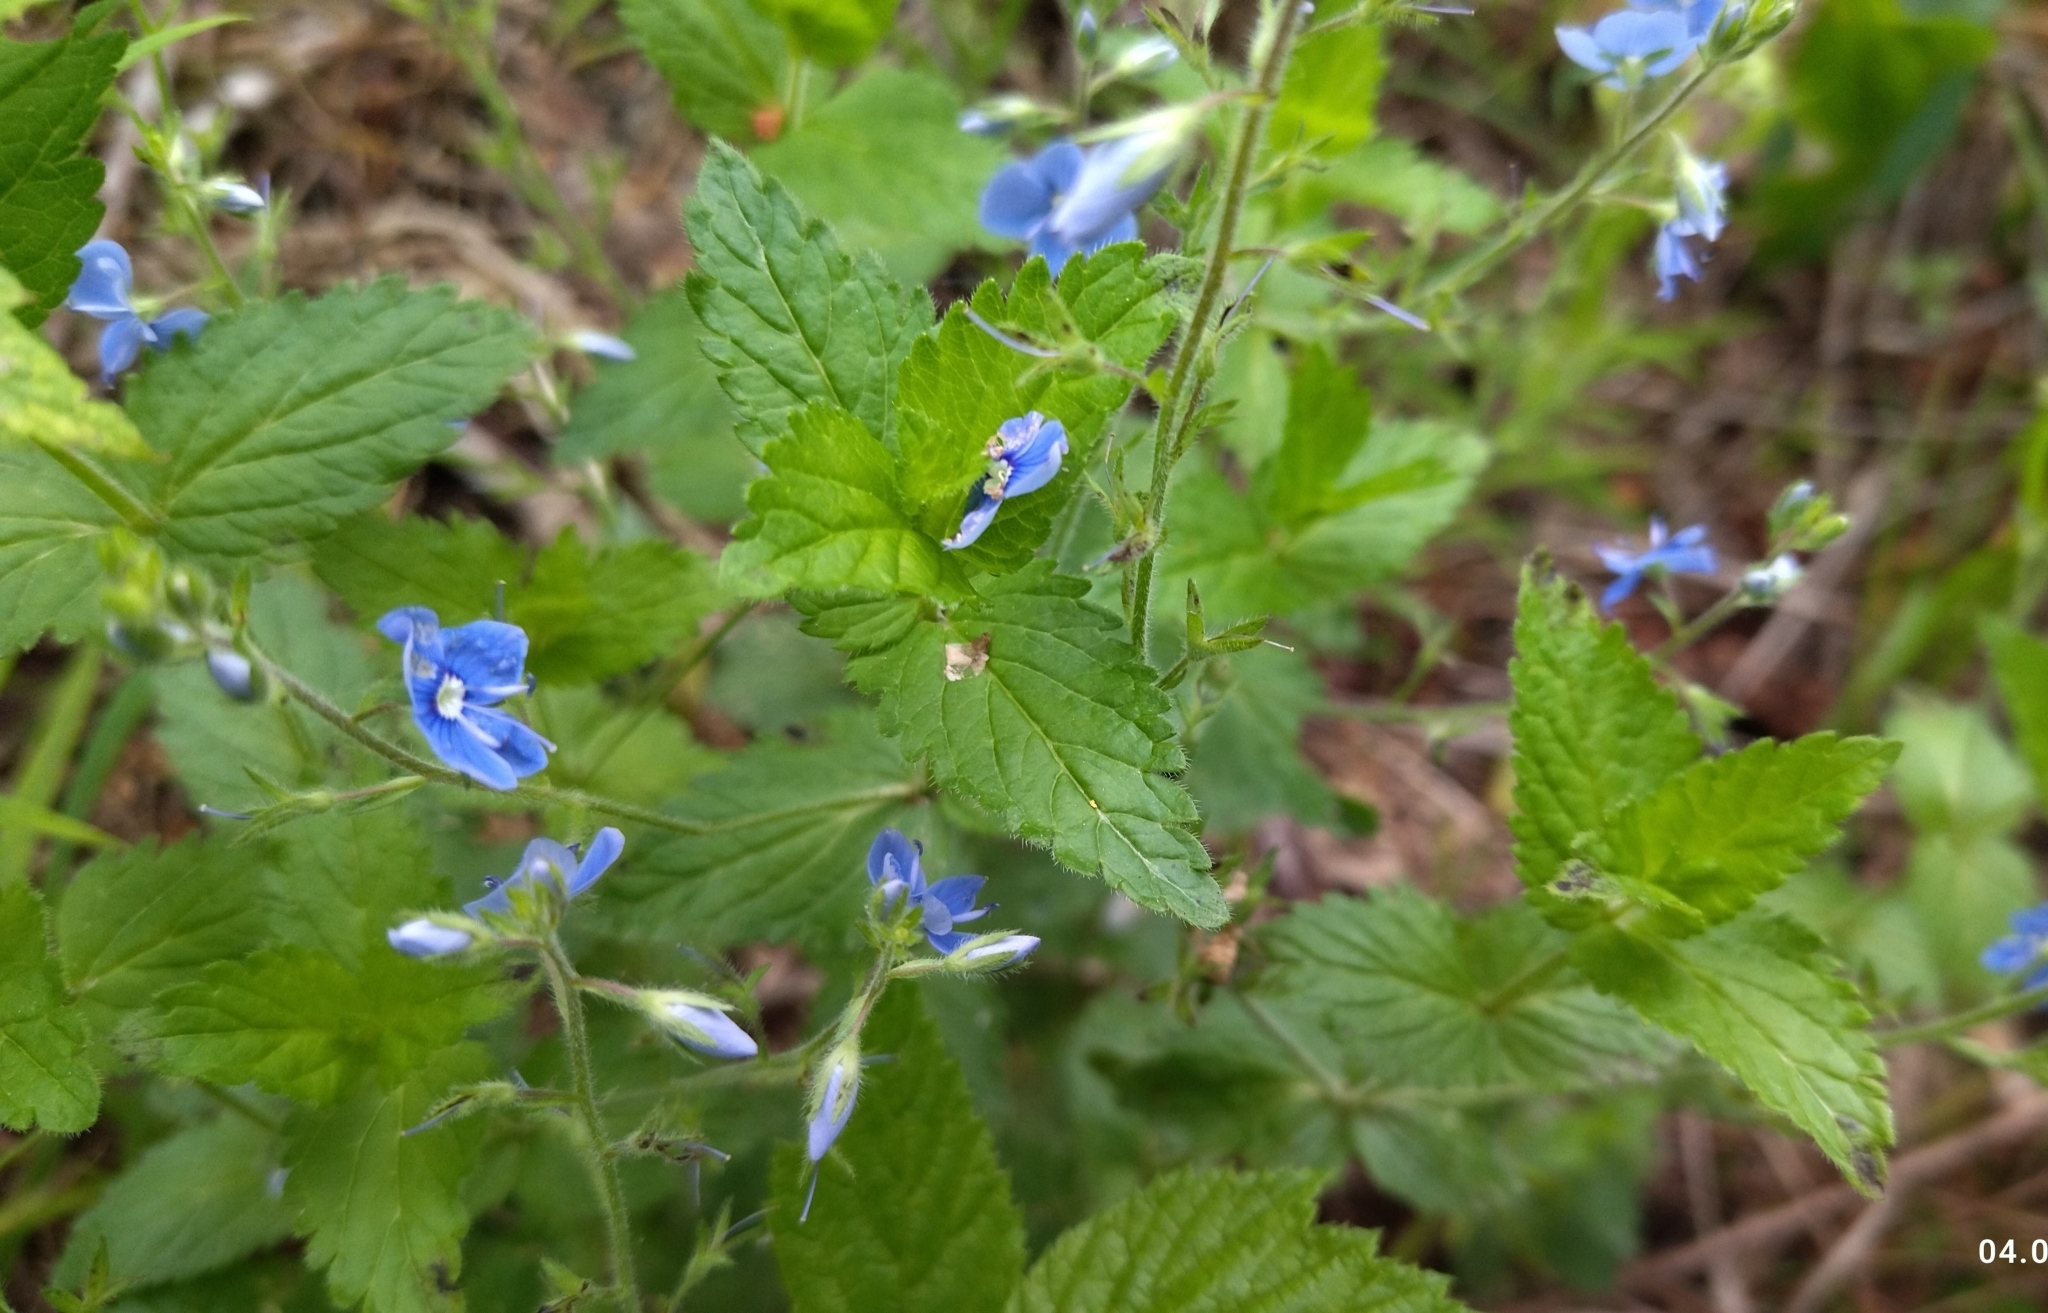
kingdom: Plantae
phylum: Tracheophyta
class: Magnoliopsida
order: Lamiales
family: Plantaginaceae
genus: Veronica
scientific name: Veronica chamaedrys
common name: Germander speedwell
